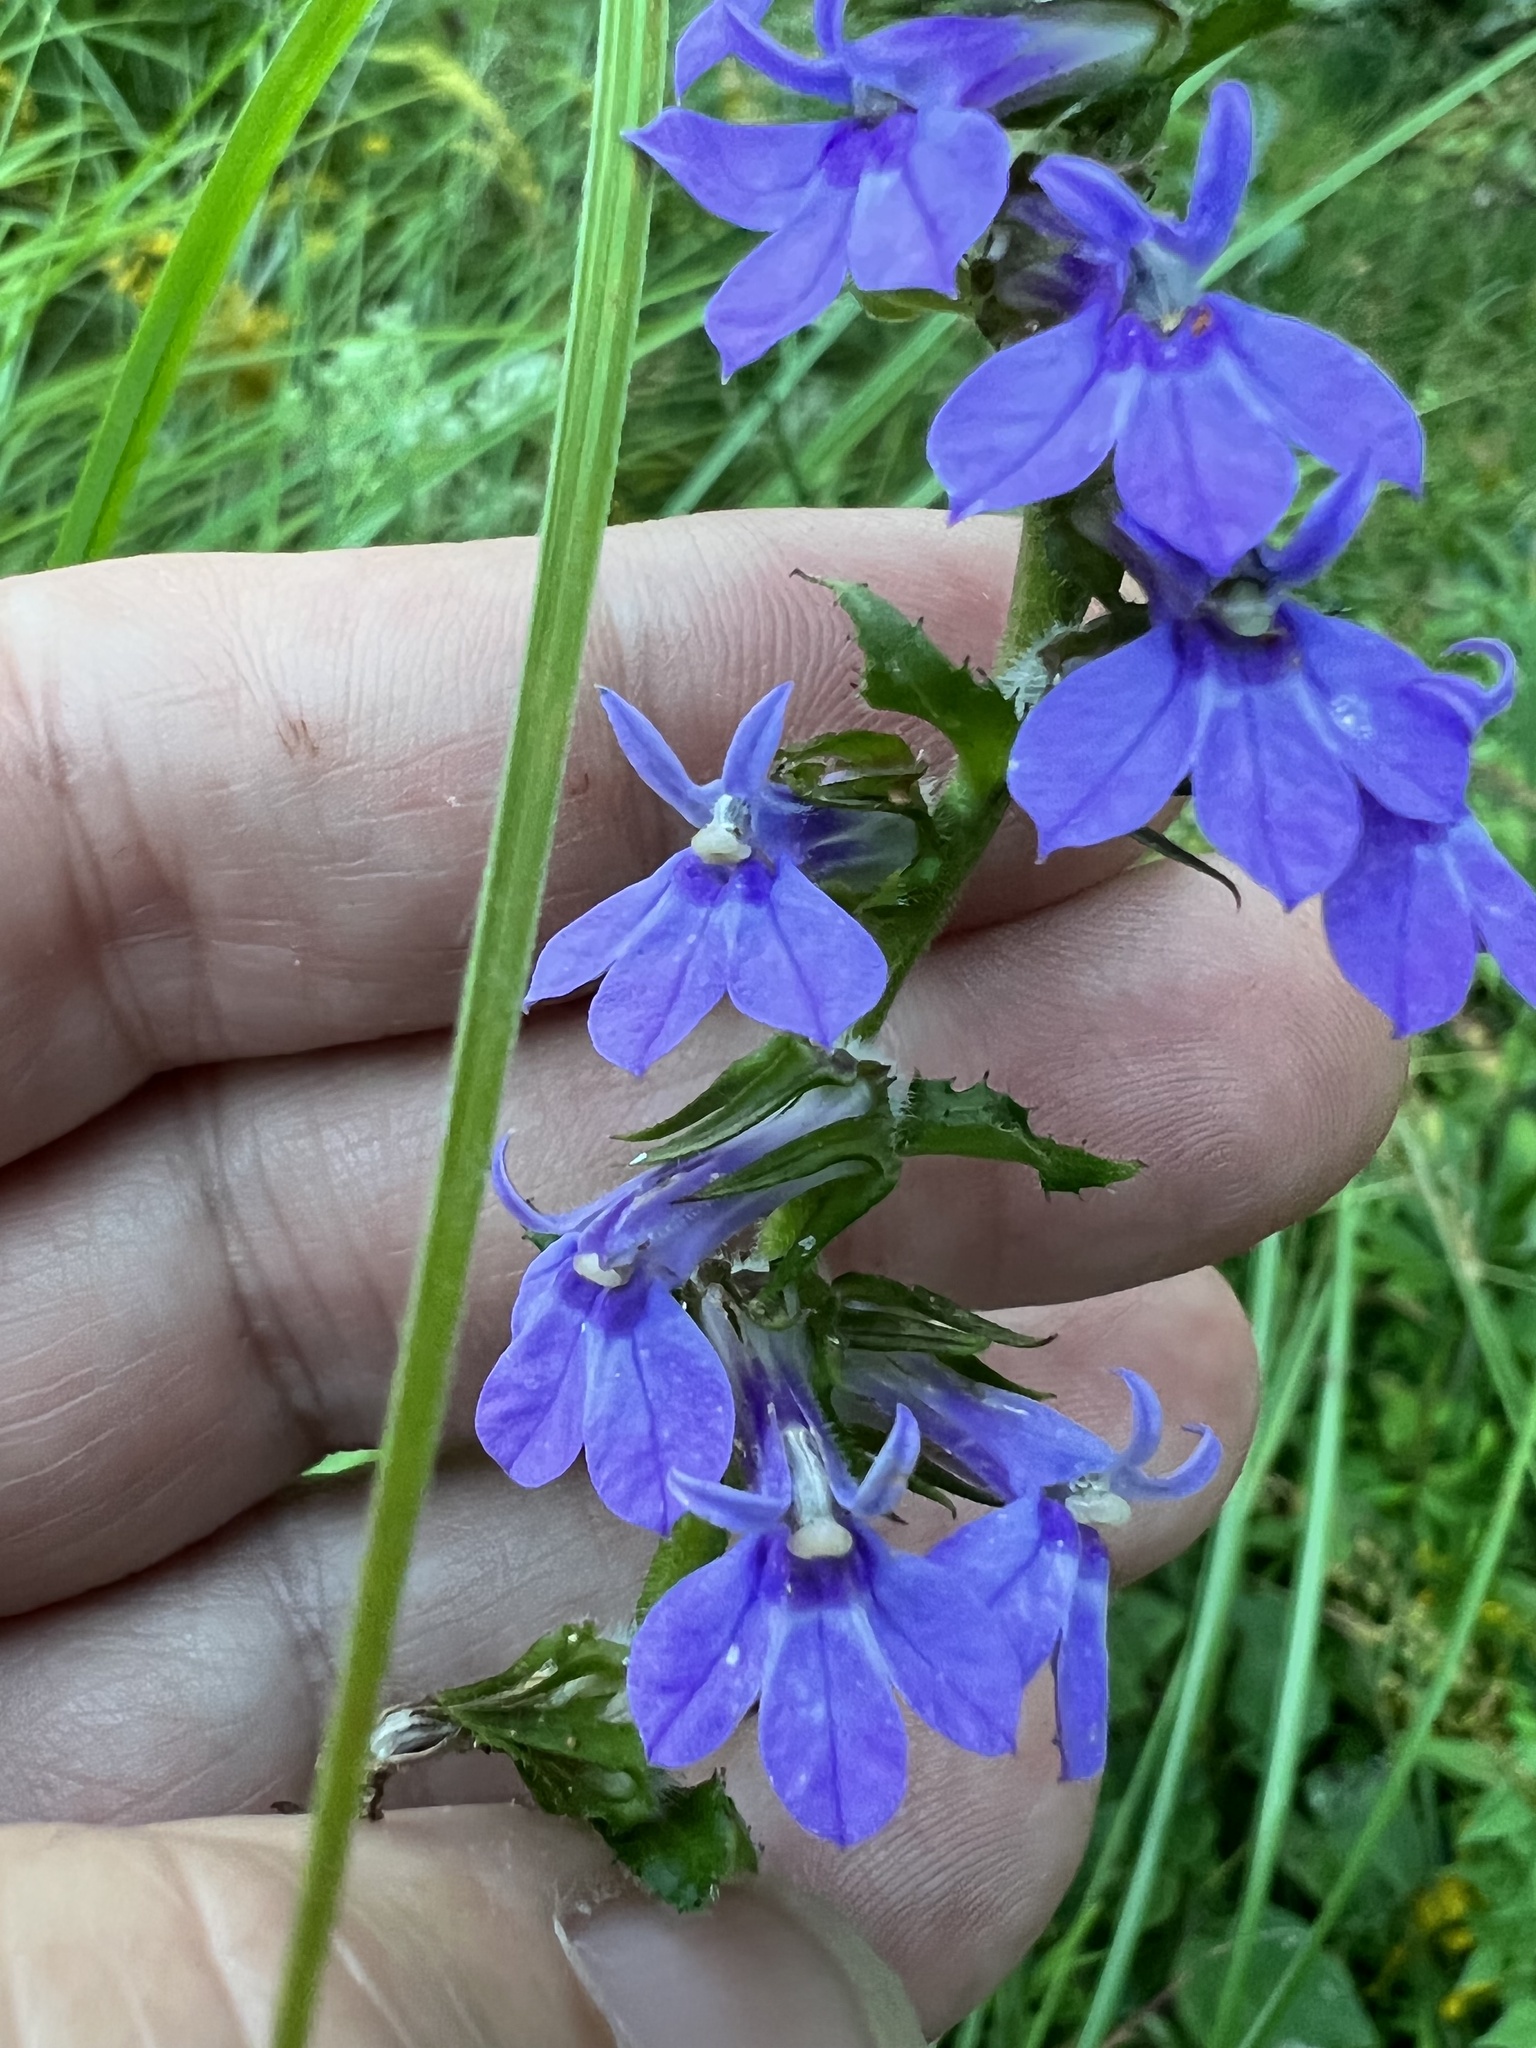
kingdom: Plantae
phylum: Tracheophyta
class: Magnoliopsida
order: Asterales
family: Campanulaceae
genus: Lobelia
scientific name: Lobelia puberula
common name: Purple dewdrop
